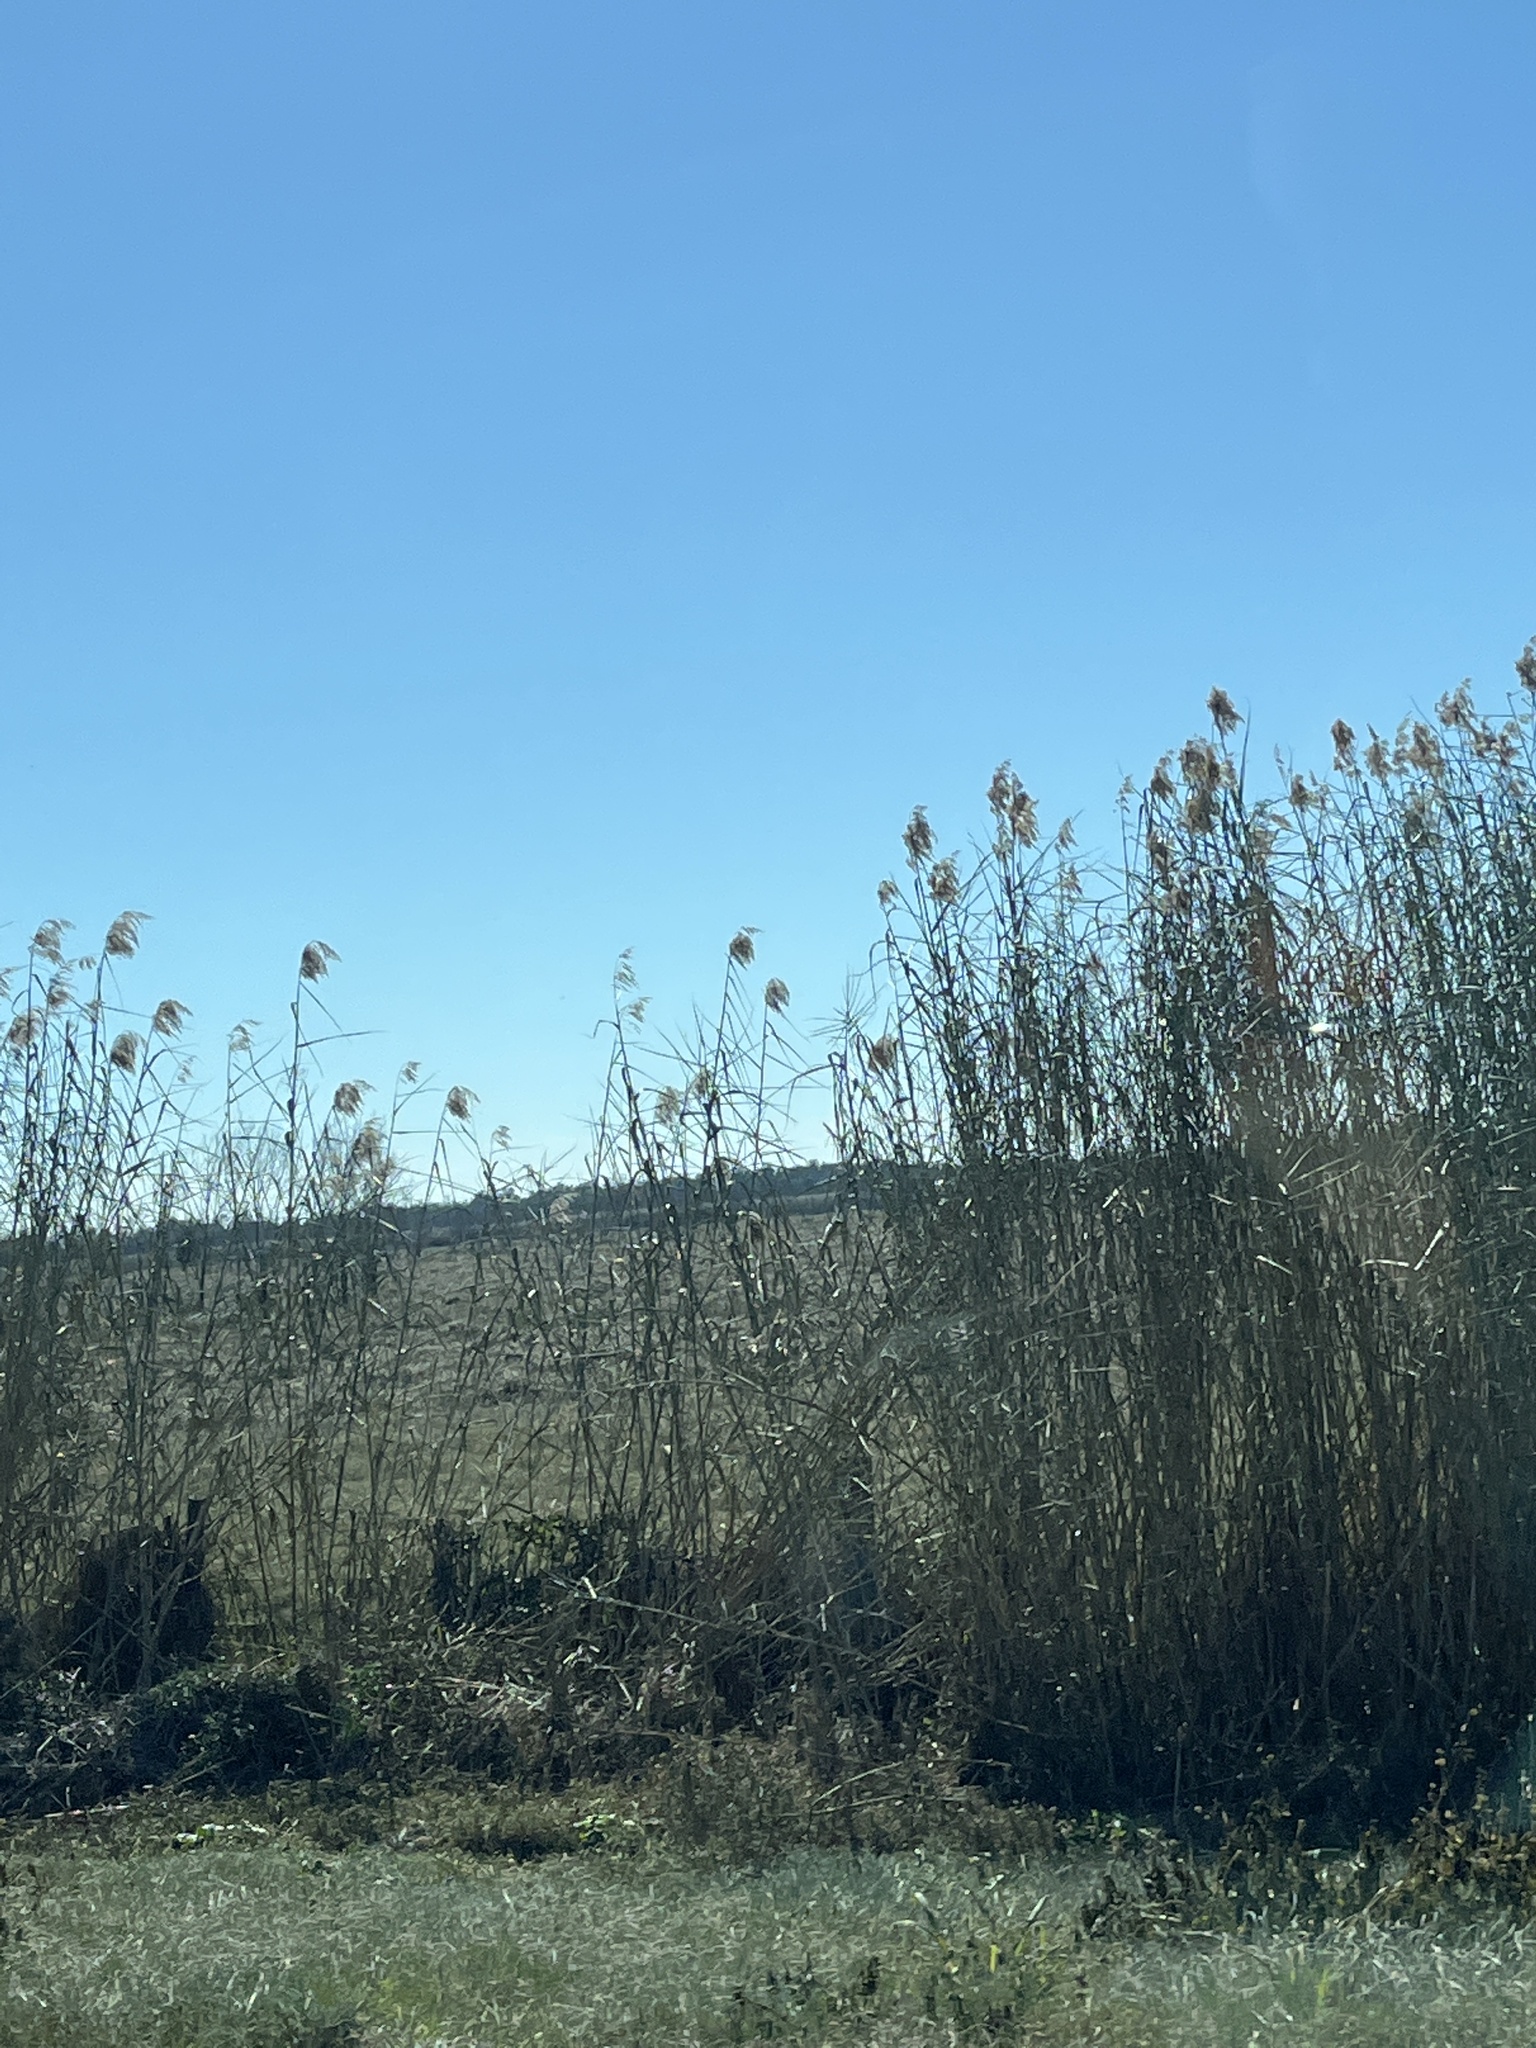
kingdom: Plantae
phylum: Tracheophyta
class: Liliopsida
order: Poales
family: Poaceae
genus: Phragmites
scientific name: Phragmites australis
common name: Common reed
